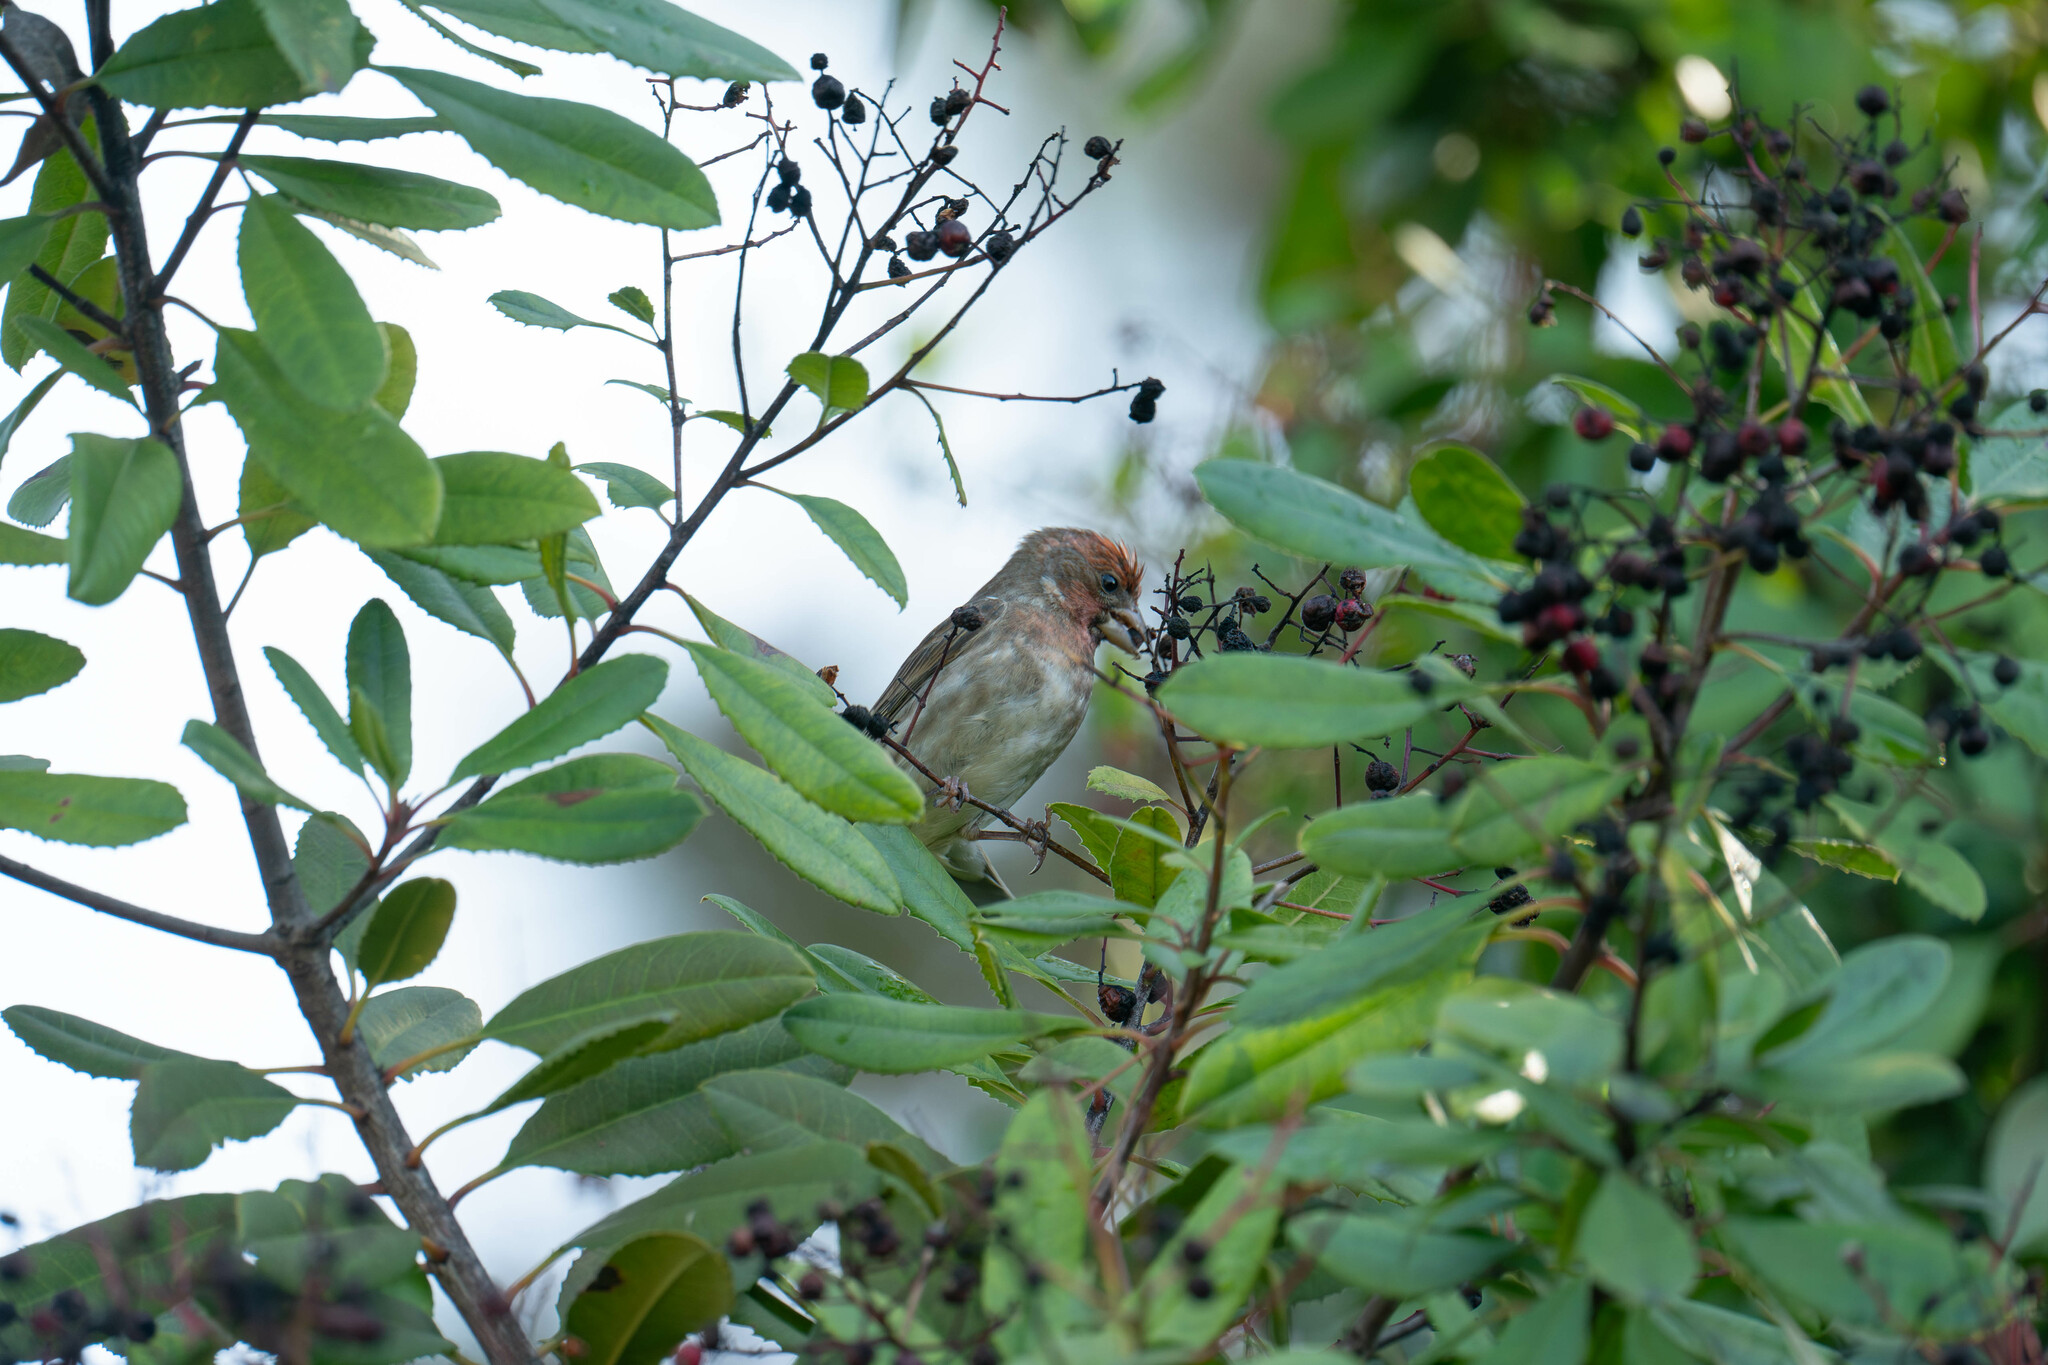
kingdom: Animalia
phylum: Chordata
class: Aves
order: Passeriformes
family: Fringillidae
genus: Haemorhous
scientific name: Haemorhous purpureus
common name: Purple finch
